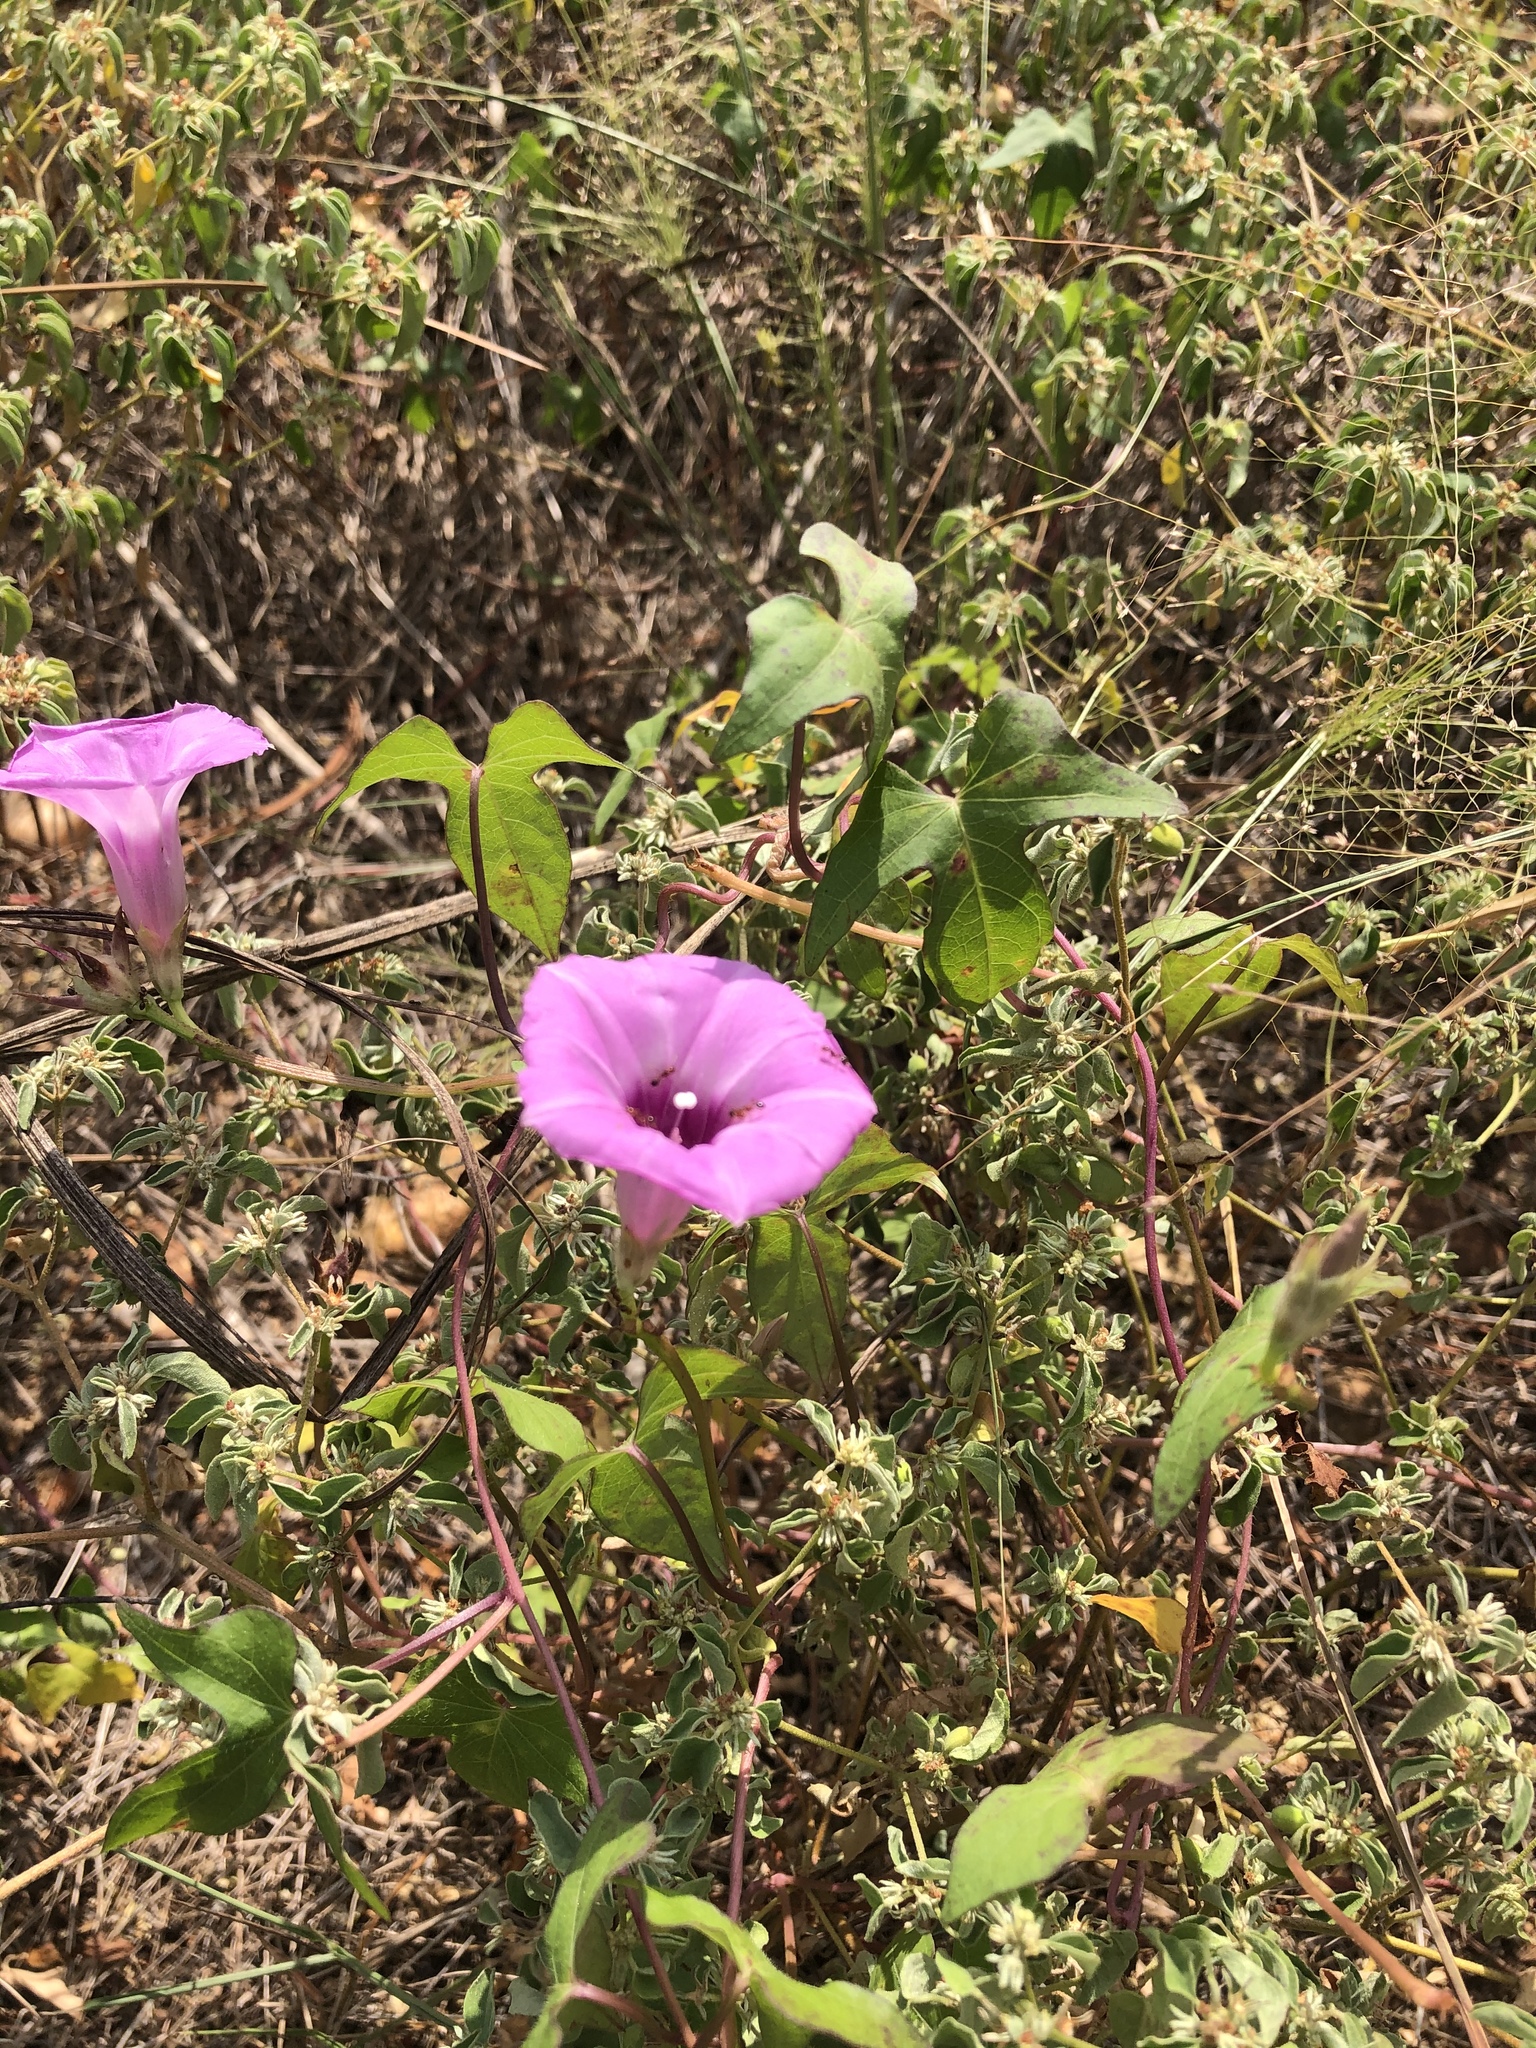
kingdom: Plantae
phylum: Tracheophyta
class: Magnoliopsida
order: Solanales
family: Convolvulaceae
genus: Ipomoea
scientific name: Ipomoea cordatotriloba
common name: Cotton morning glory
